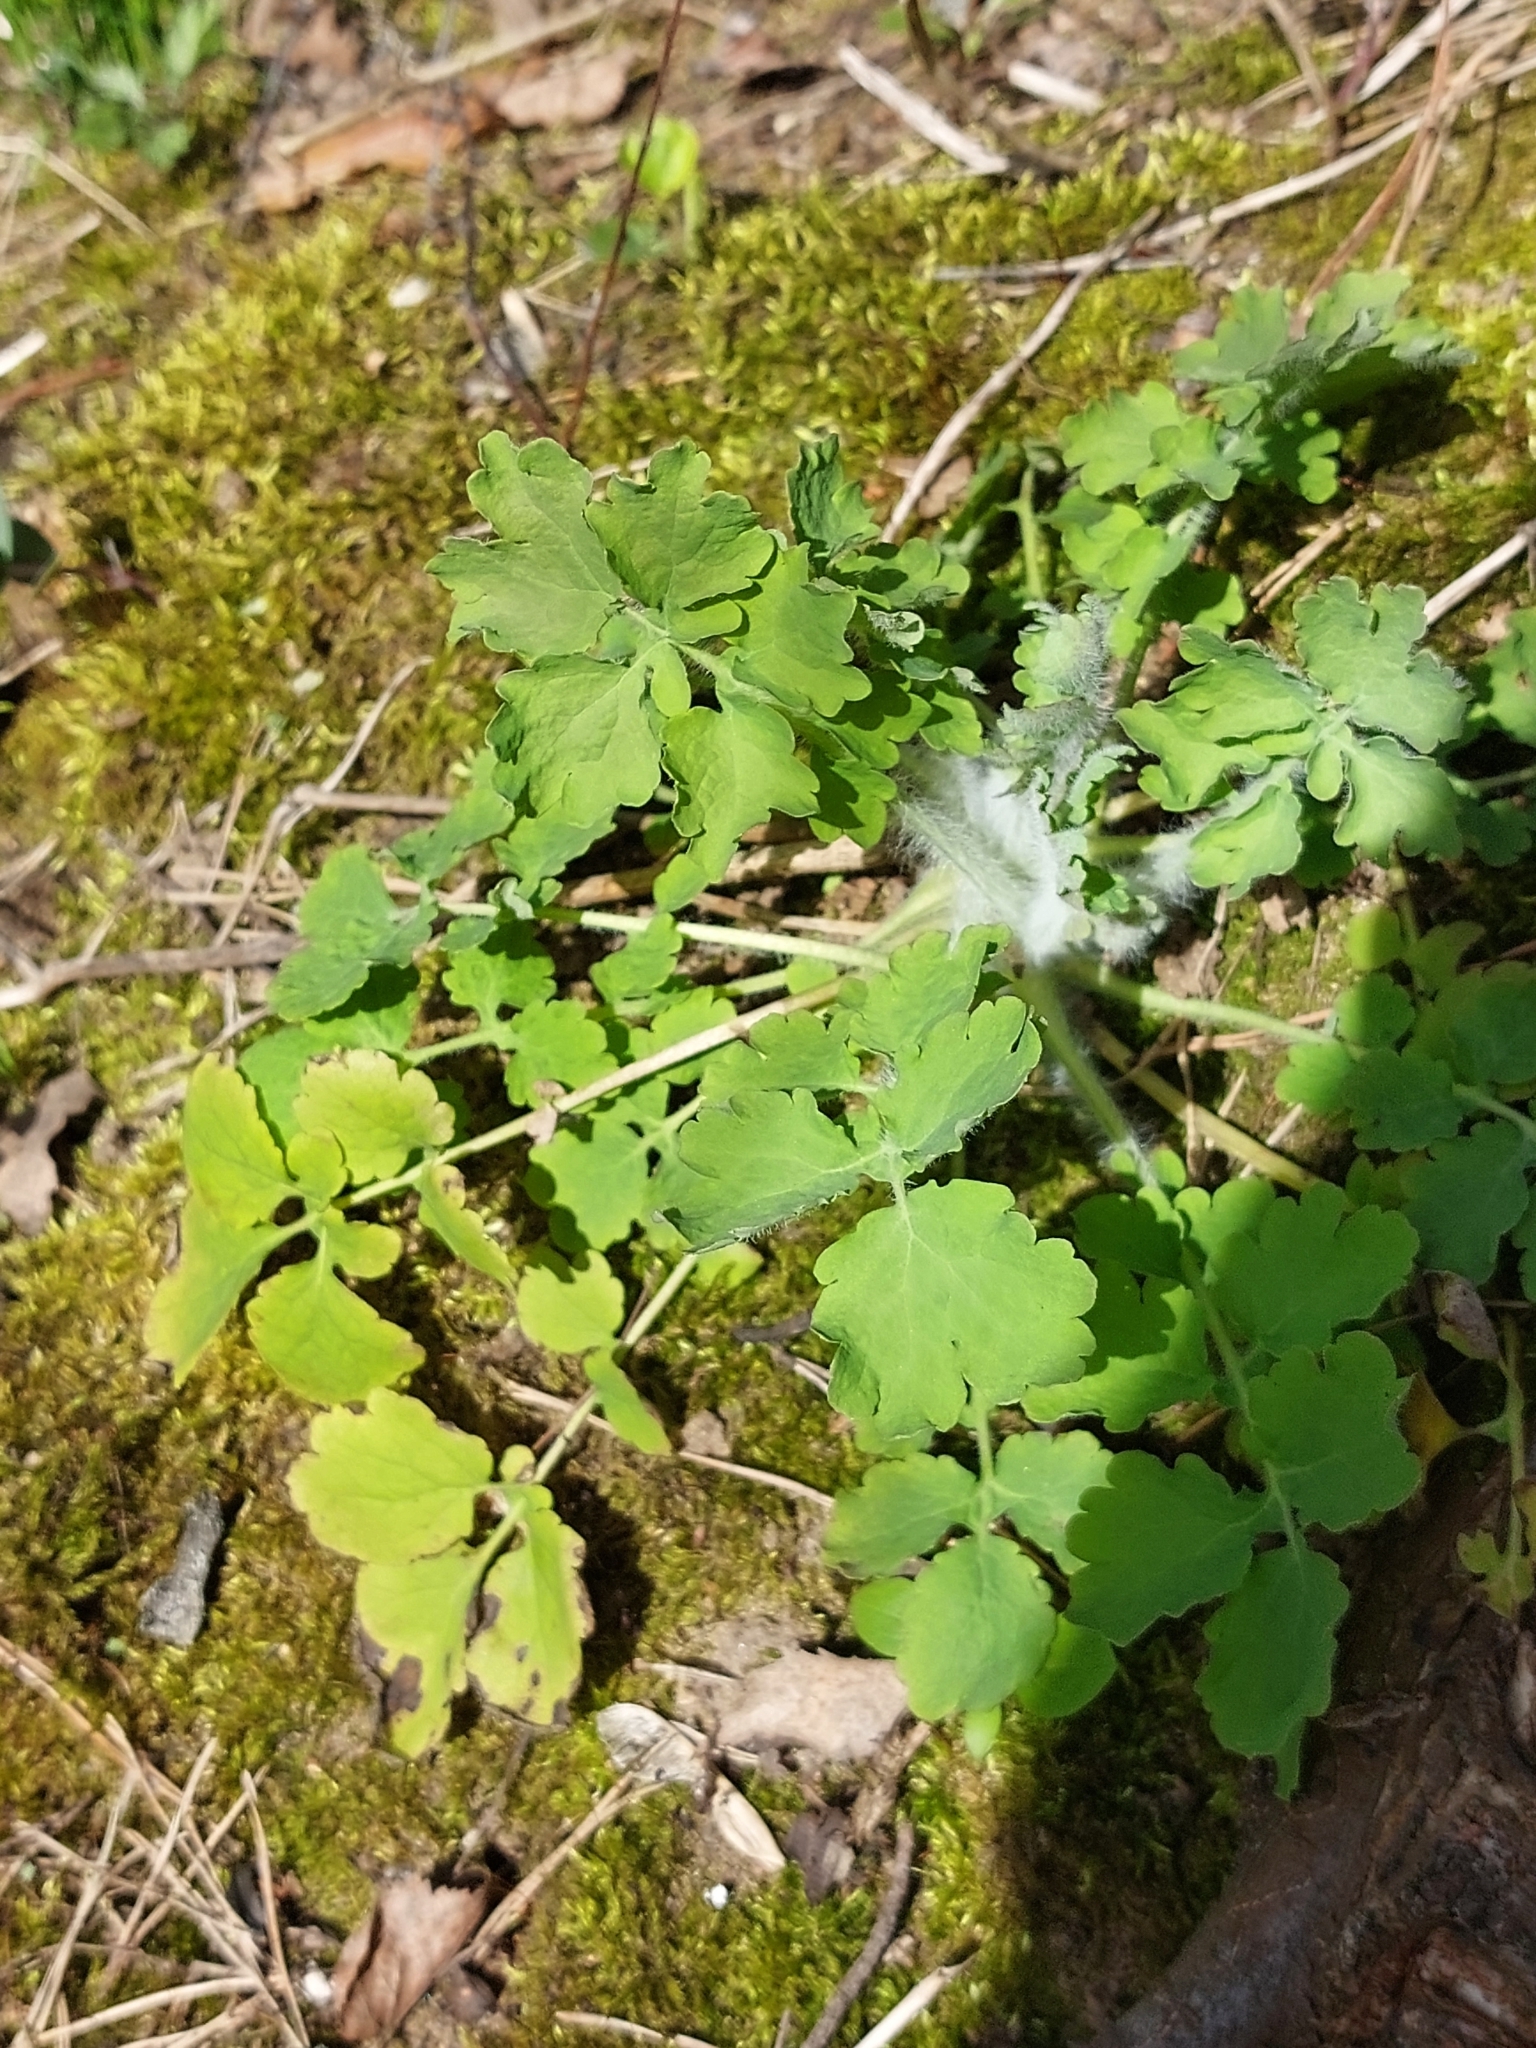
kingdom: Plantae
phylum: Tracheophyta
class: Magnoliopsida
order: Ranunculales
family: Papaveraceae
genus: Chelidonium
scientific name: Chelidonium majus
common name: Greater celandine
